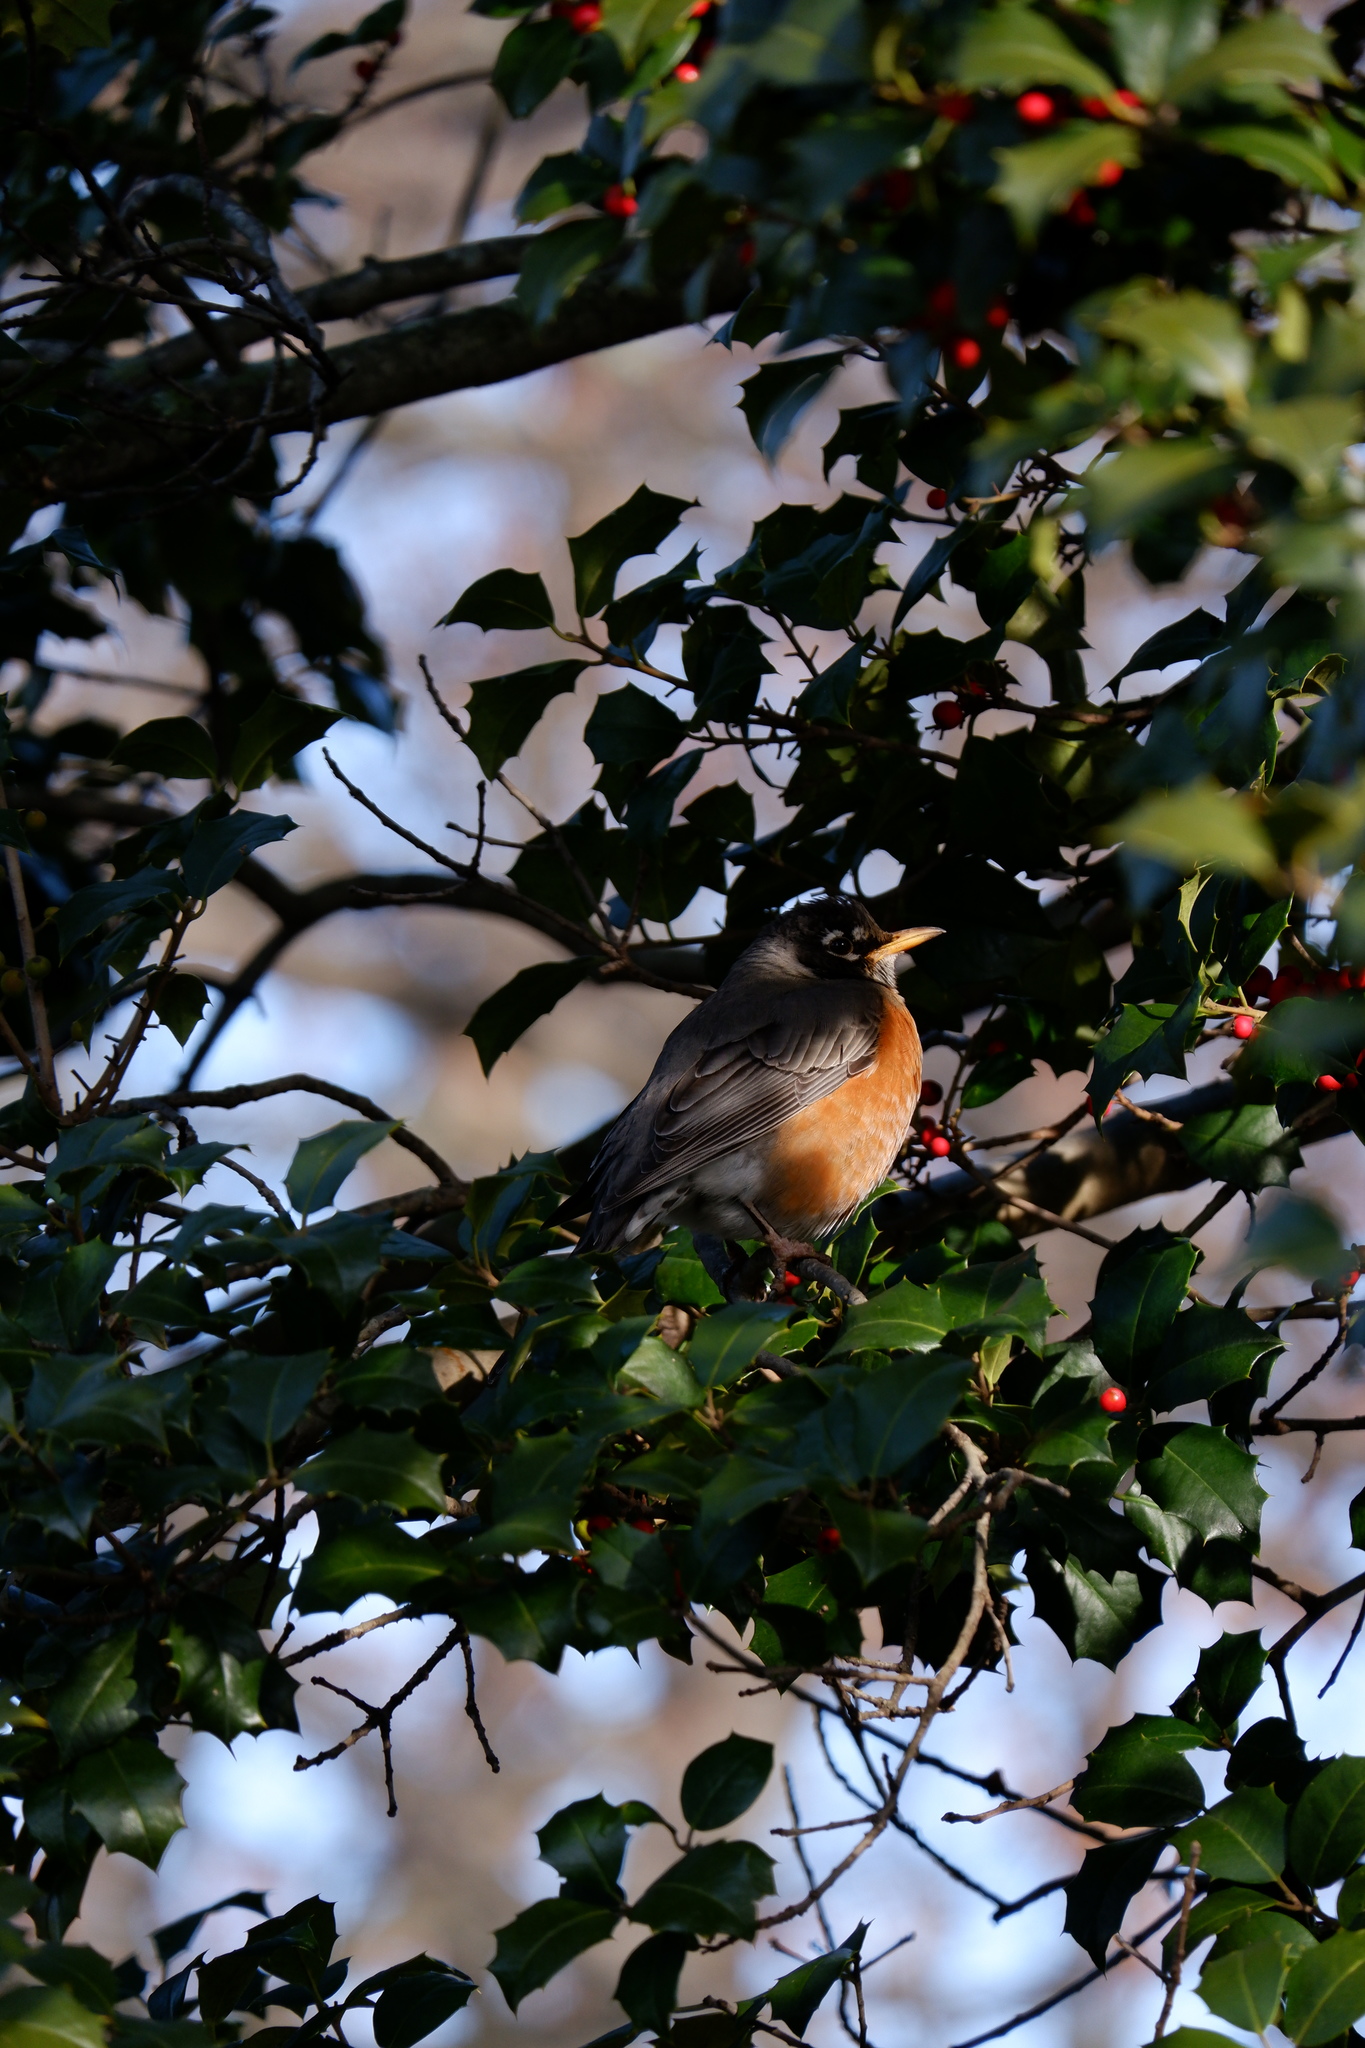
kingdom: Animalia
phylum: Chordata
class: Aves
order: Passeriformes
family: Turdidae
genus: Turdus
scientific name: Turdus migratorius
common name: American robin
